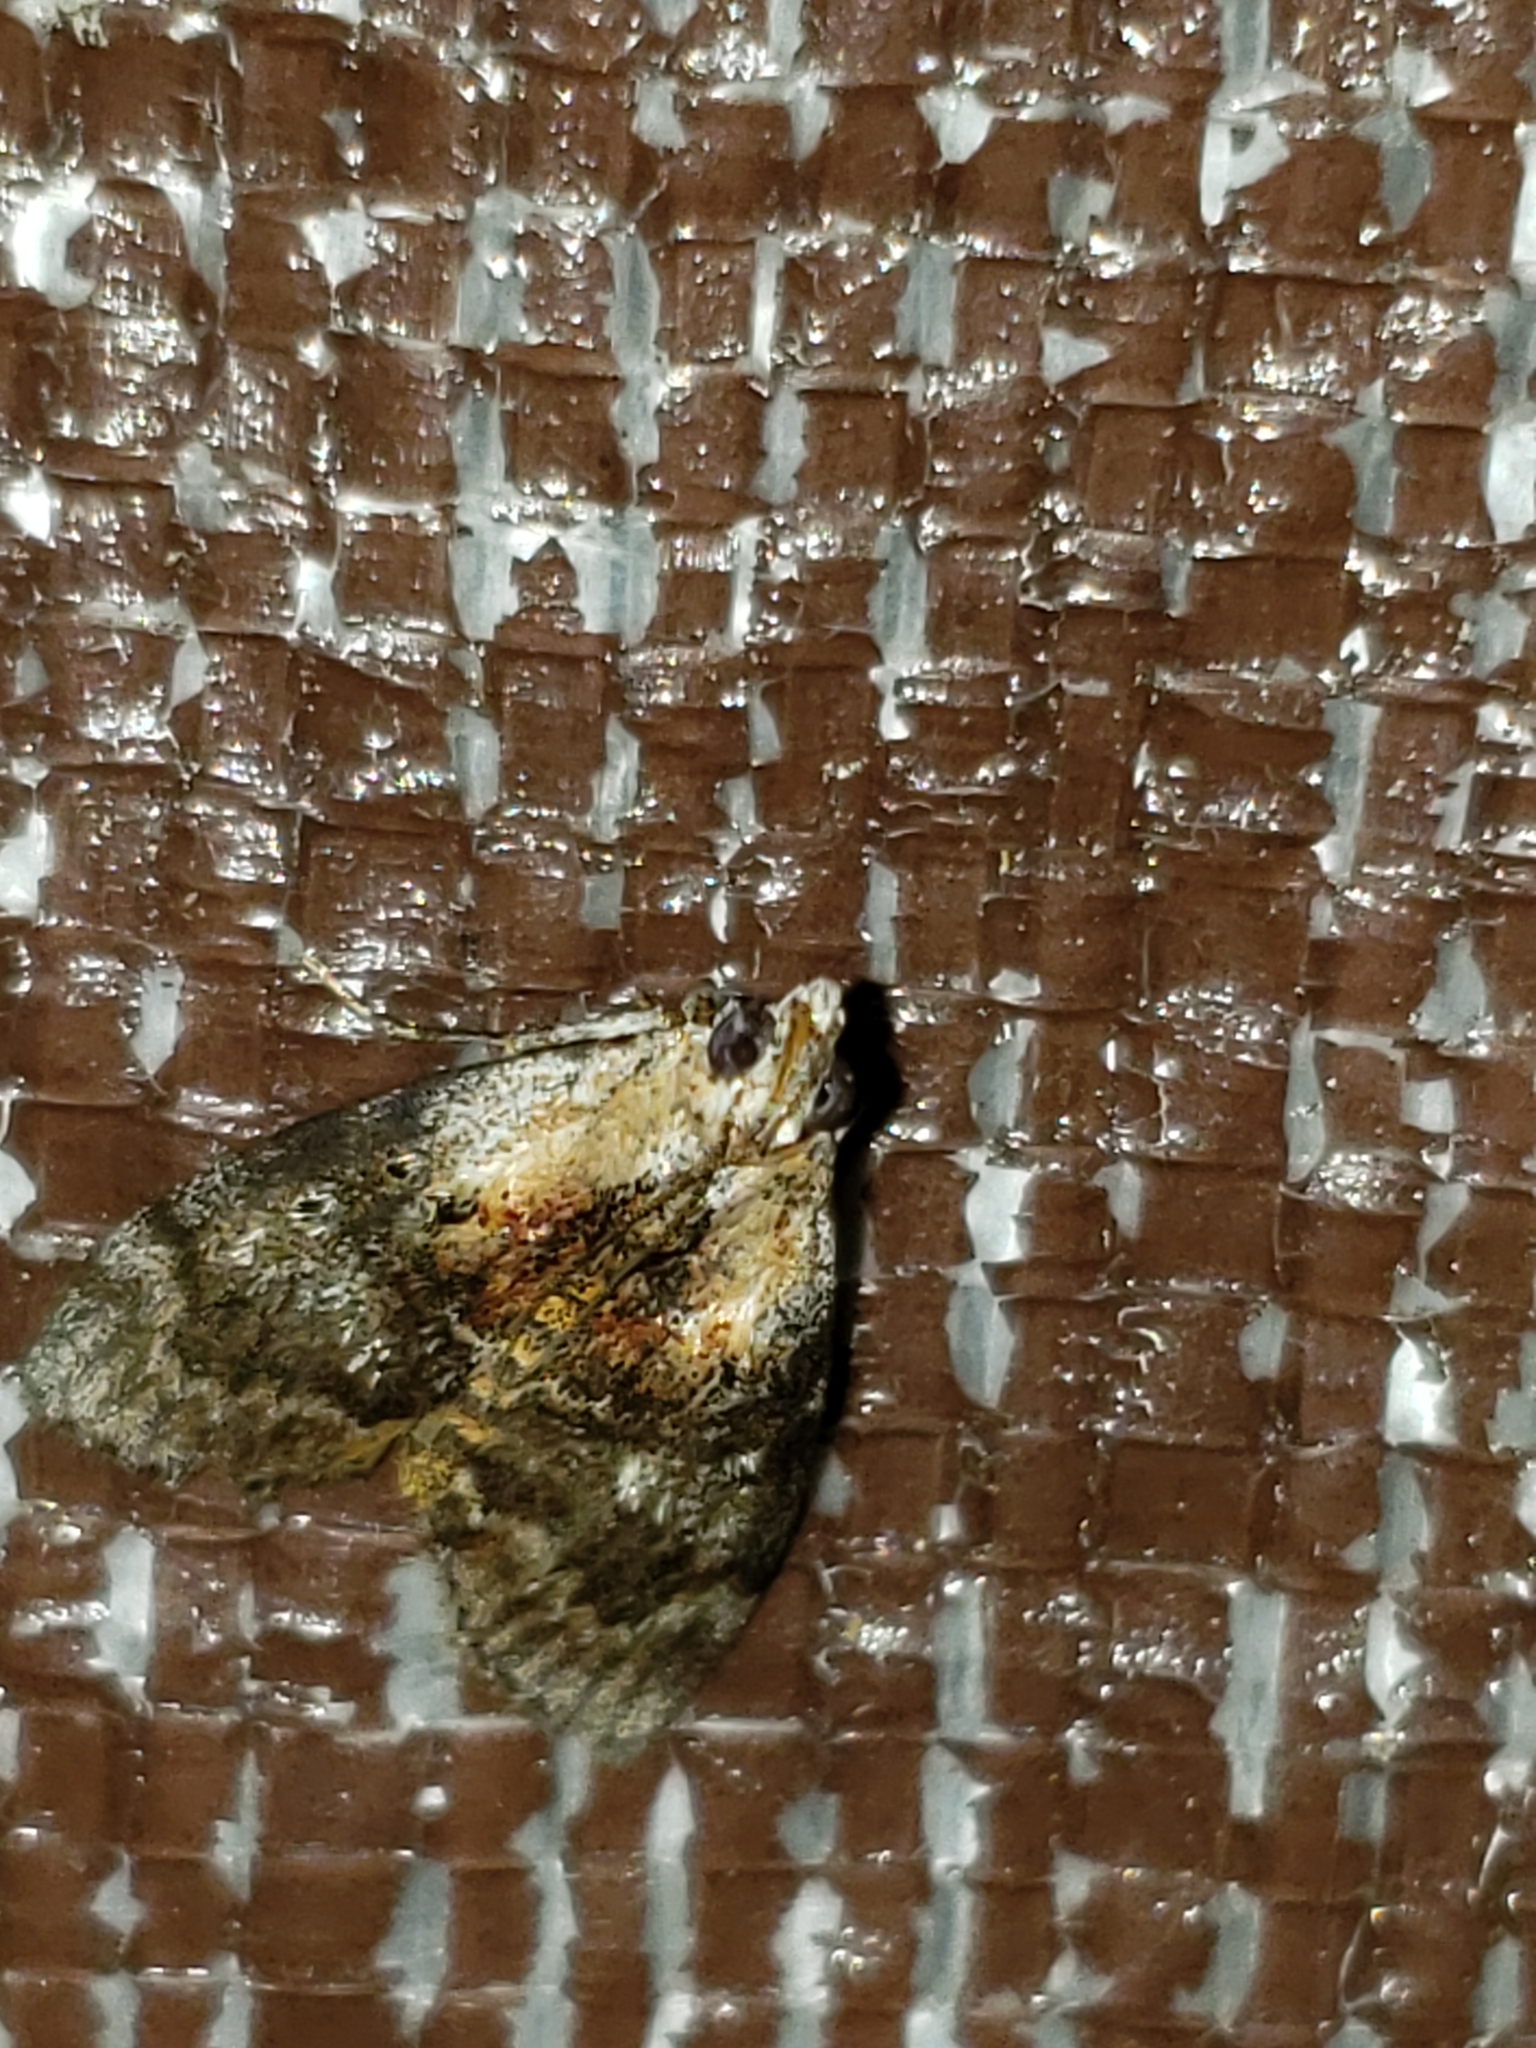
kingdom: Animalia
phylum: Arthropoda
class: Insecta
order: Lepidoptera
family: Pyralidae
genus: Pococera
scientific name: Pococera expandens
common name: Striped oak webworm moth
